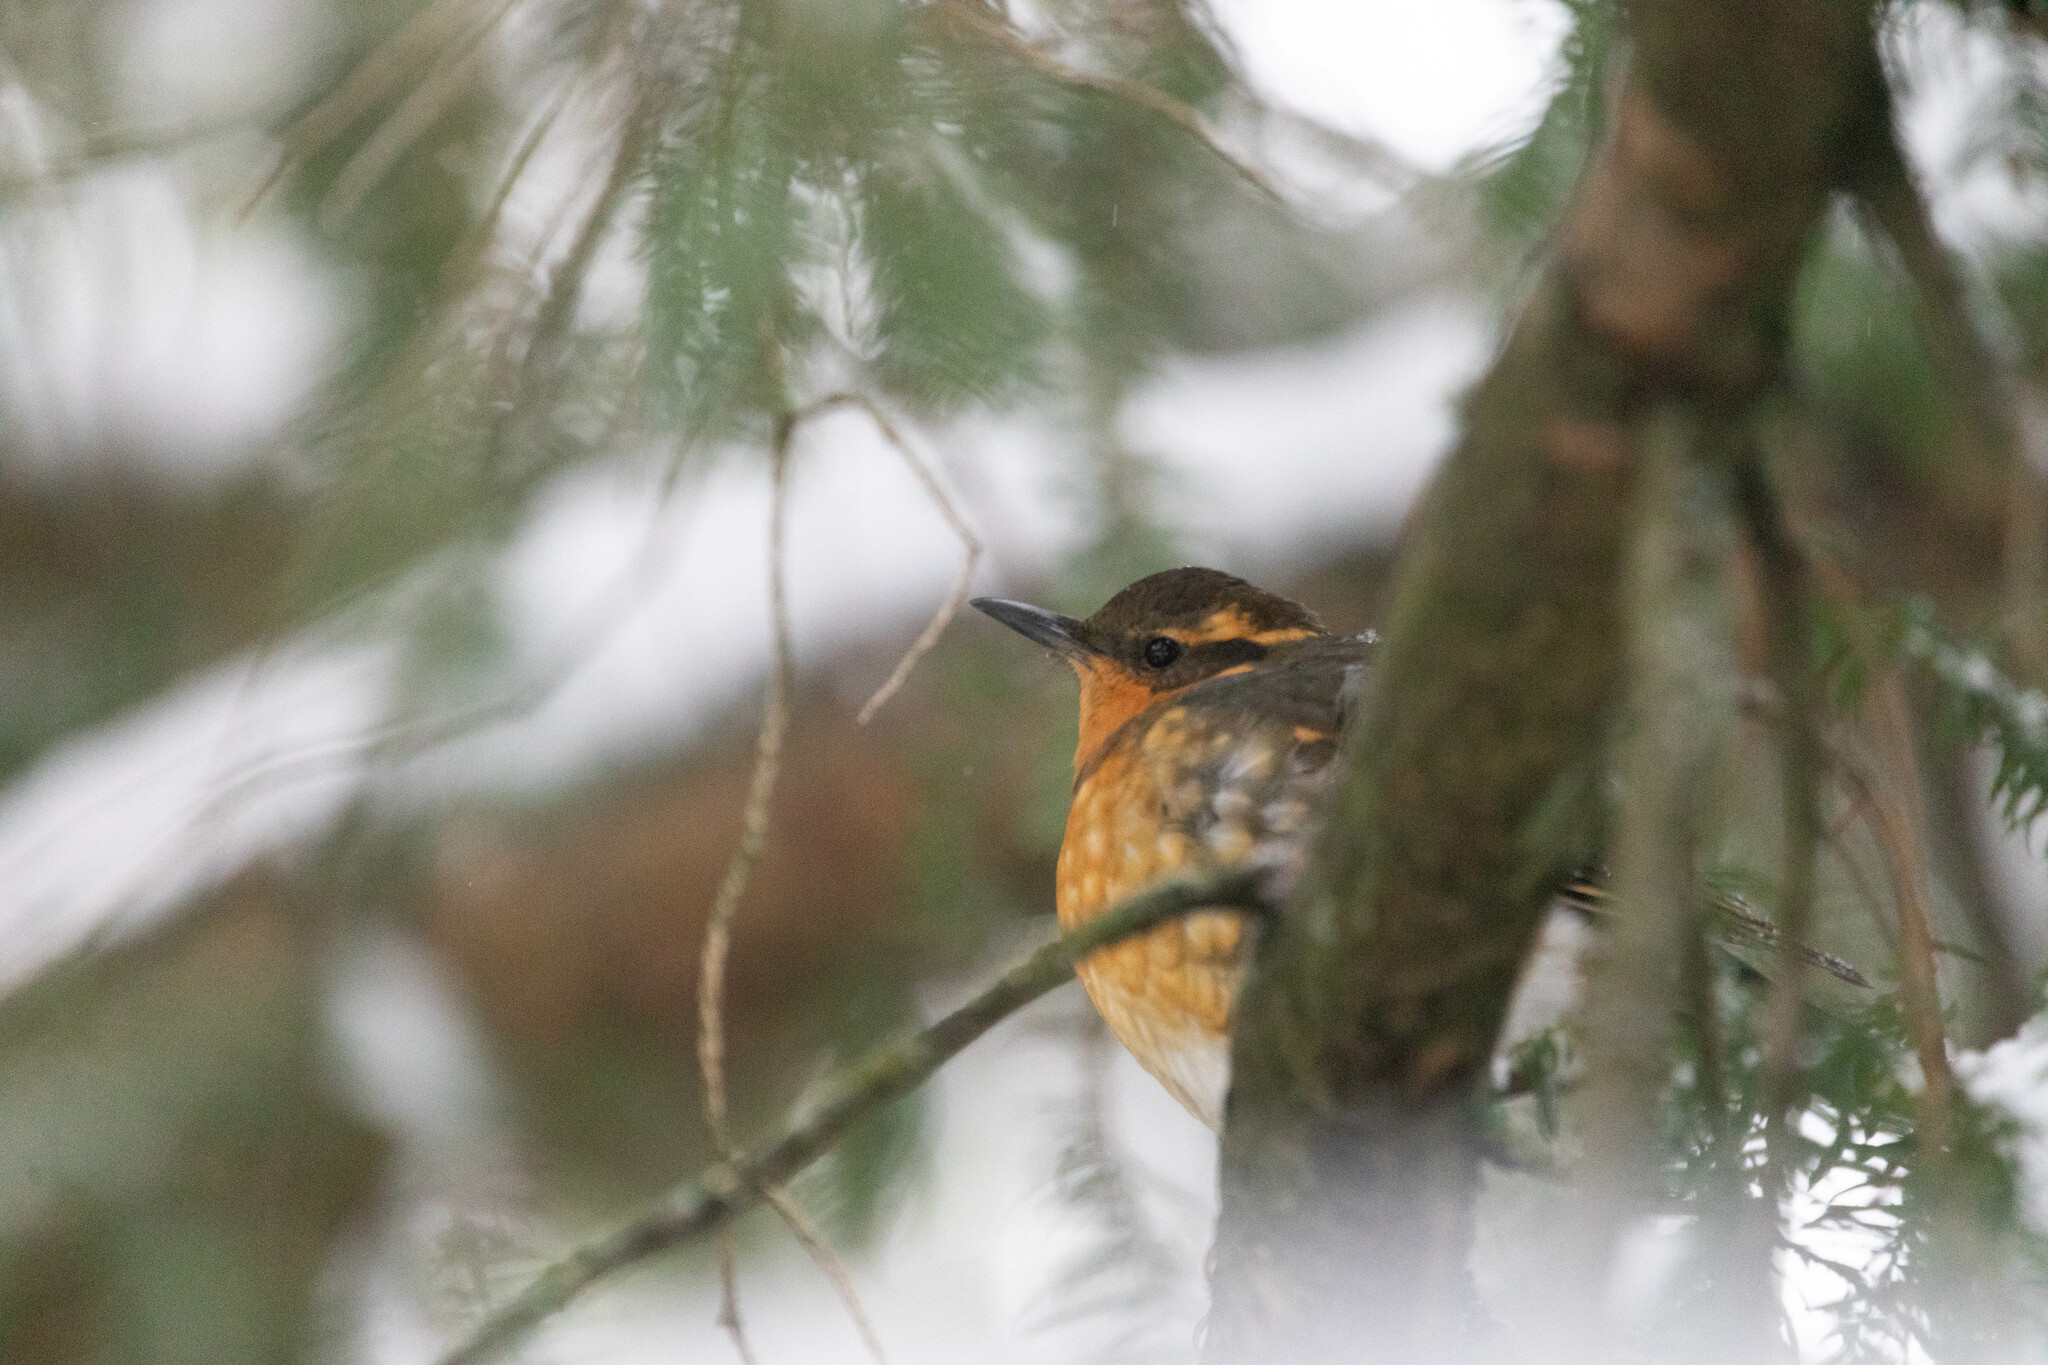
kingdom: Animalia
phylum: Chordata
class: Aves
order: Passeriformes
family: Turdidae
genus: Ixoreus
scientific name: Ixoreus naevius
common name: Varied thrush
